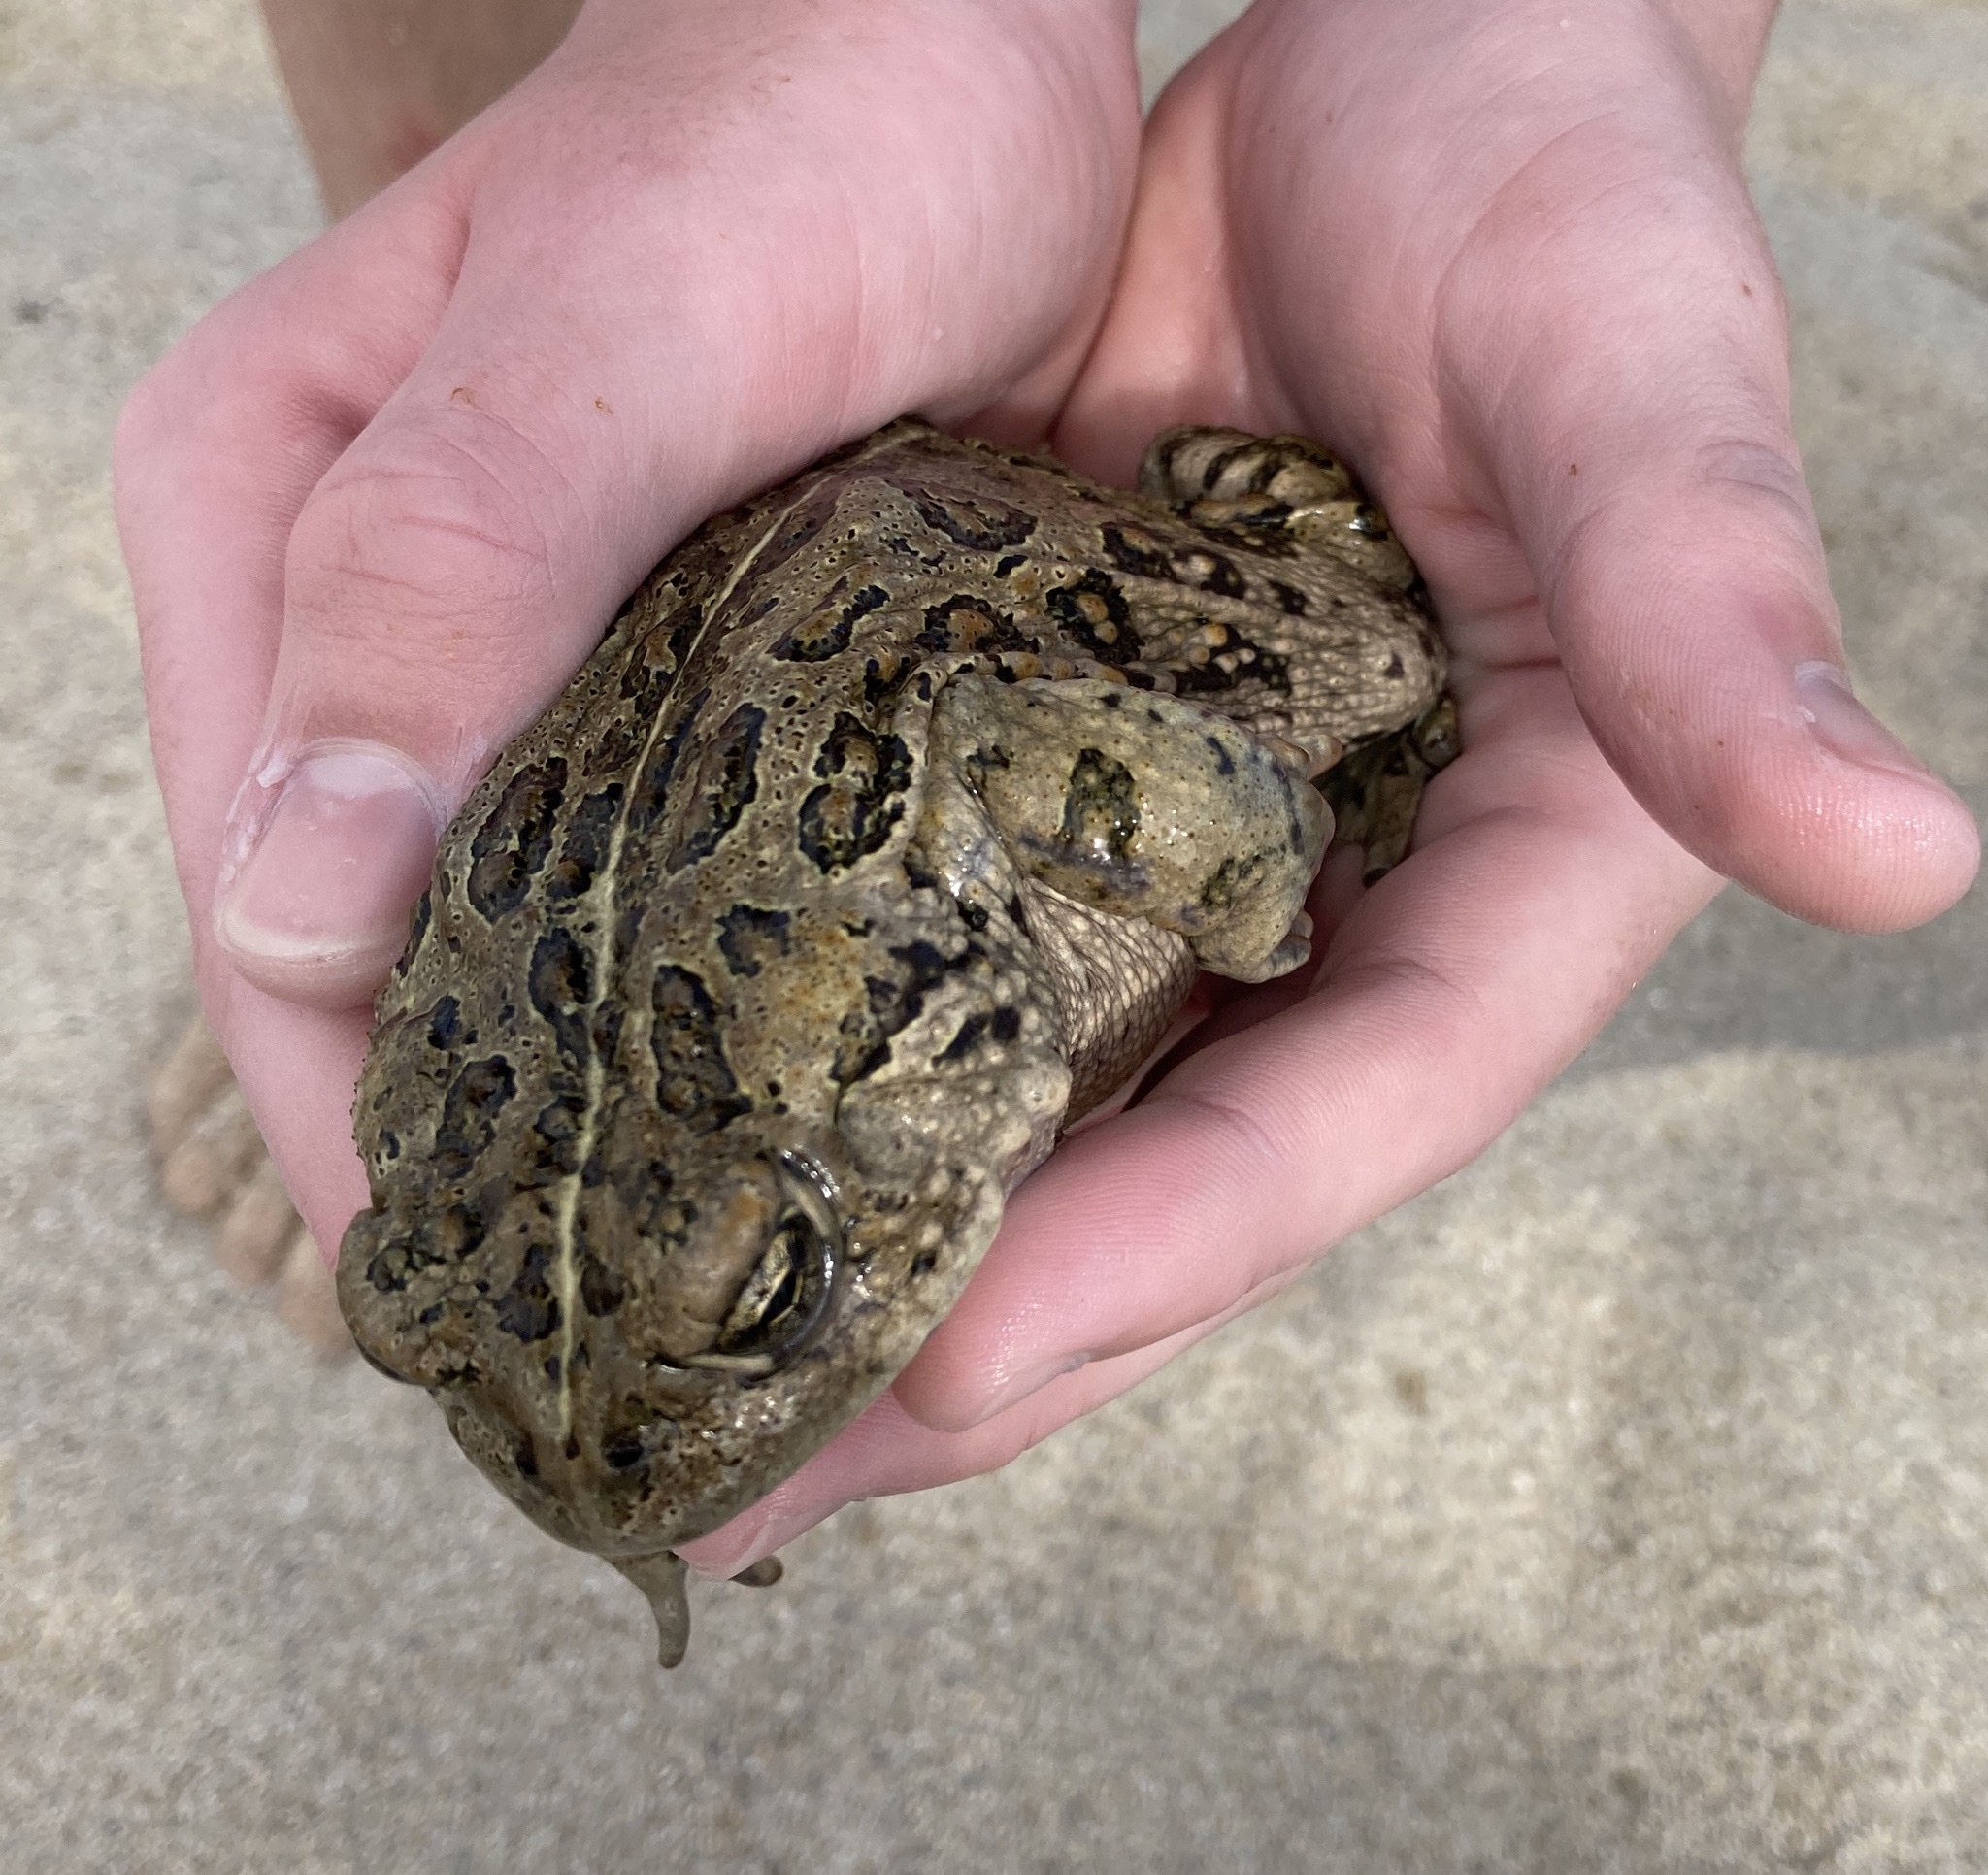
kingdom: Animalia
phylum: Chordata
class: Amphibia
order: Anura
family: Bufonidae
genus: Anaxyrus
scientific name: Anaxyrus boreas
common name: Western toad
